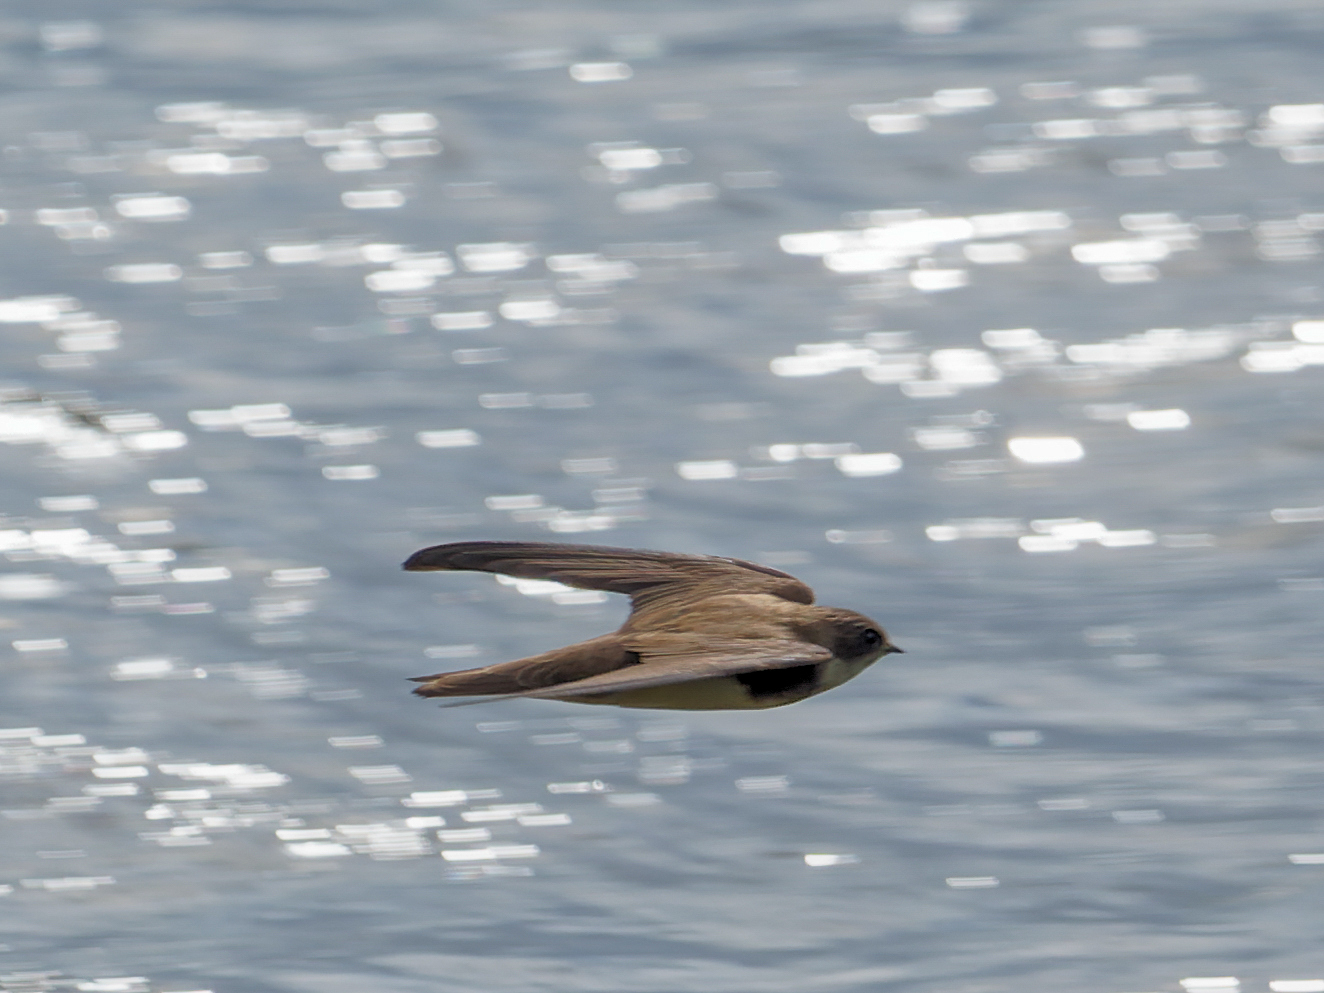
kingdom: Animalia
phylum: Chordata
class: Aves
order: Passeriformes
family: Hirundinidae
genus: Riparia
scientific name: Riparia riparia
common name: Sand martin
